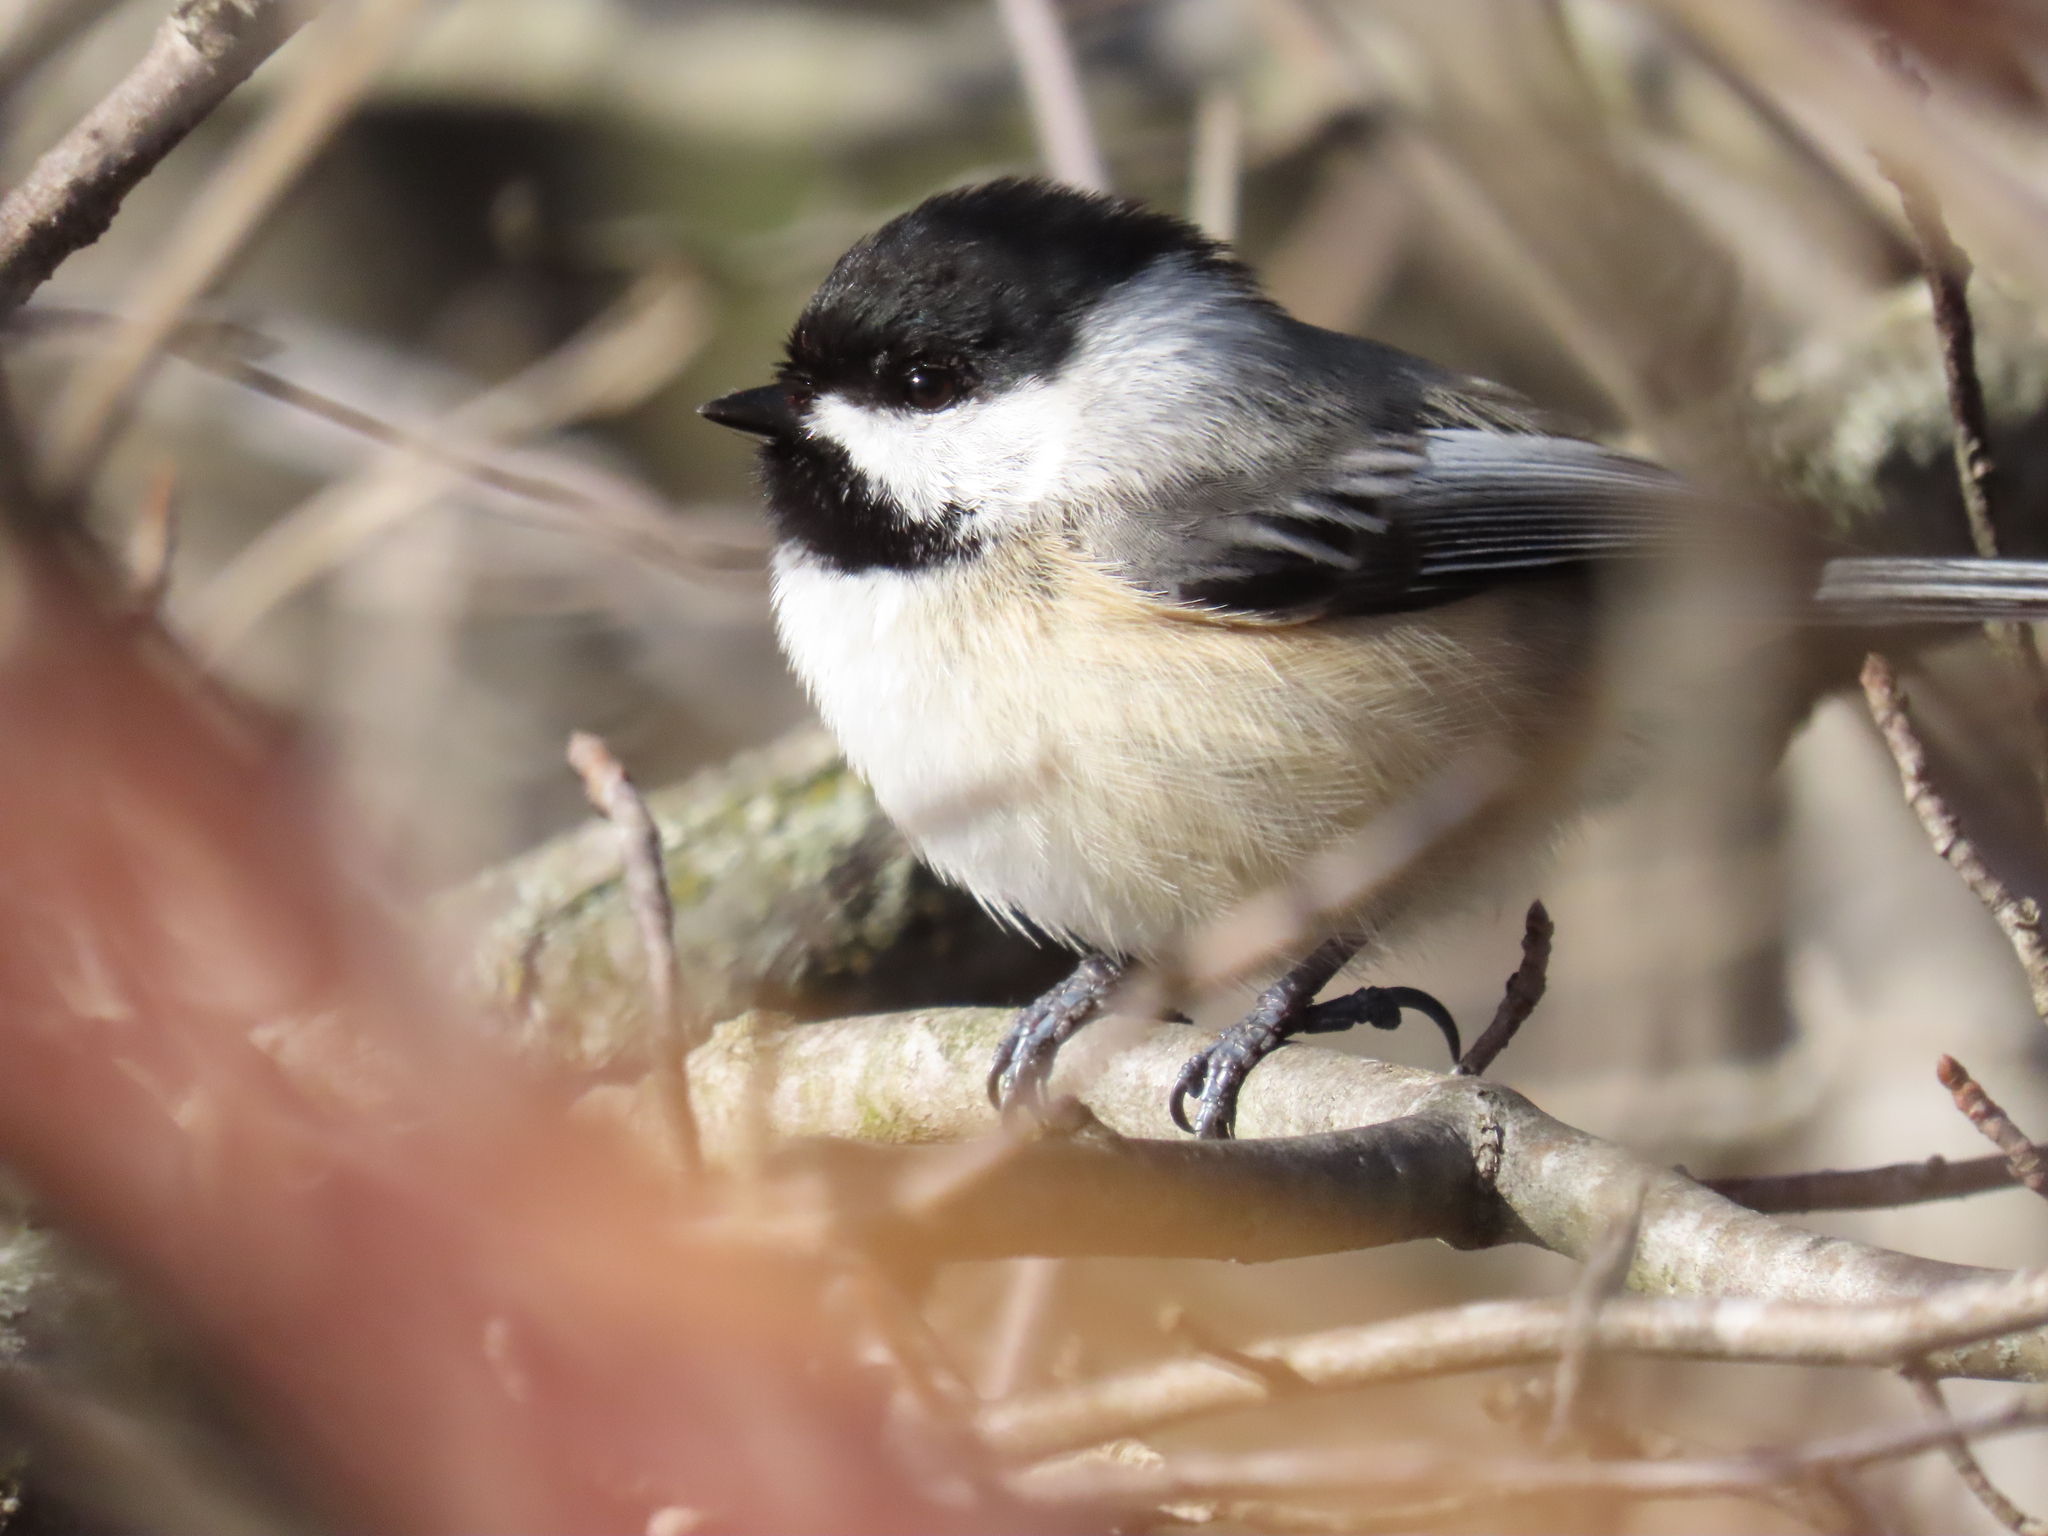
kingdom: Animalia
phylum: Chordata
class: Aves
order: Passeriformes
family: Paridae
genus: Poecile
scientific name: Poecile atricapillus
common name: Black-capped chickadee
